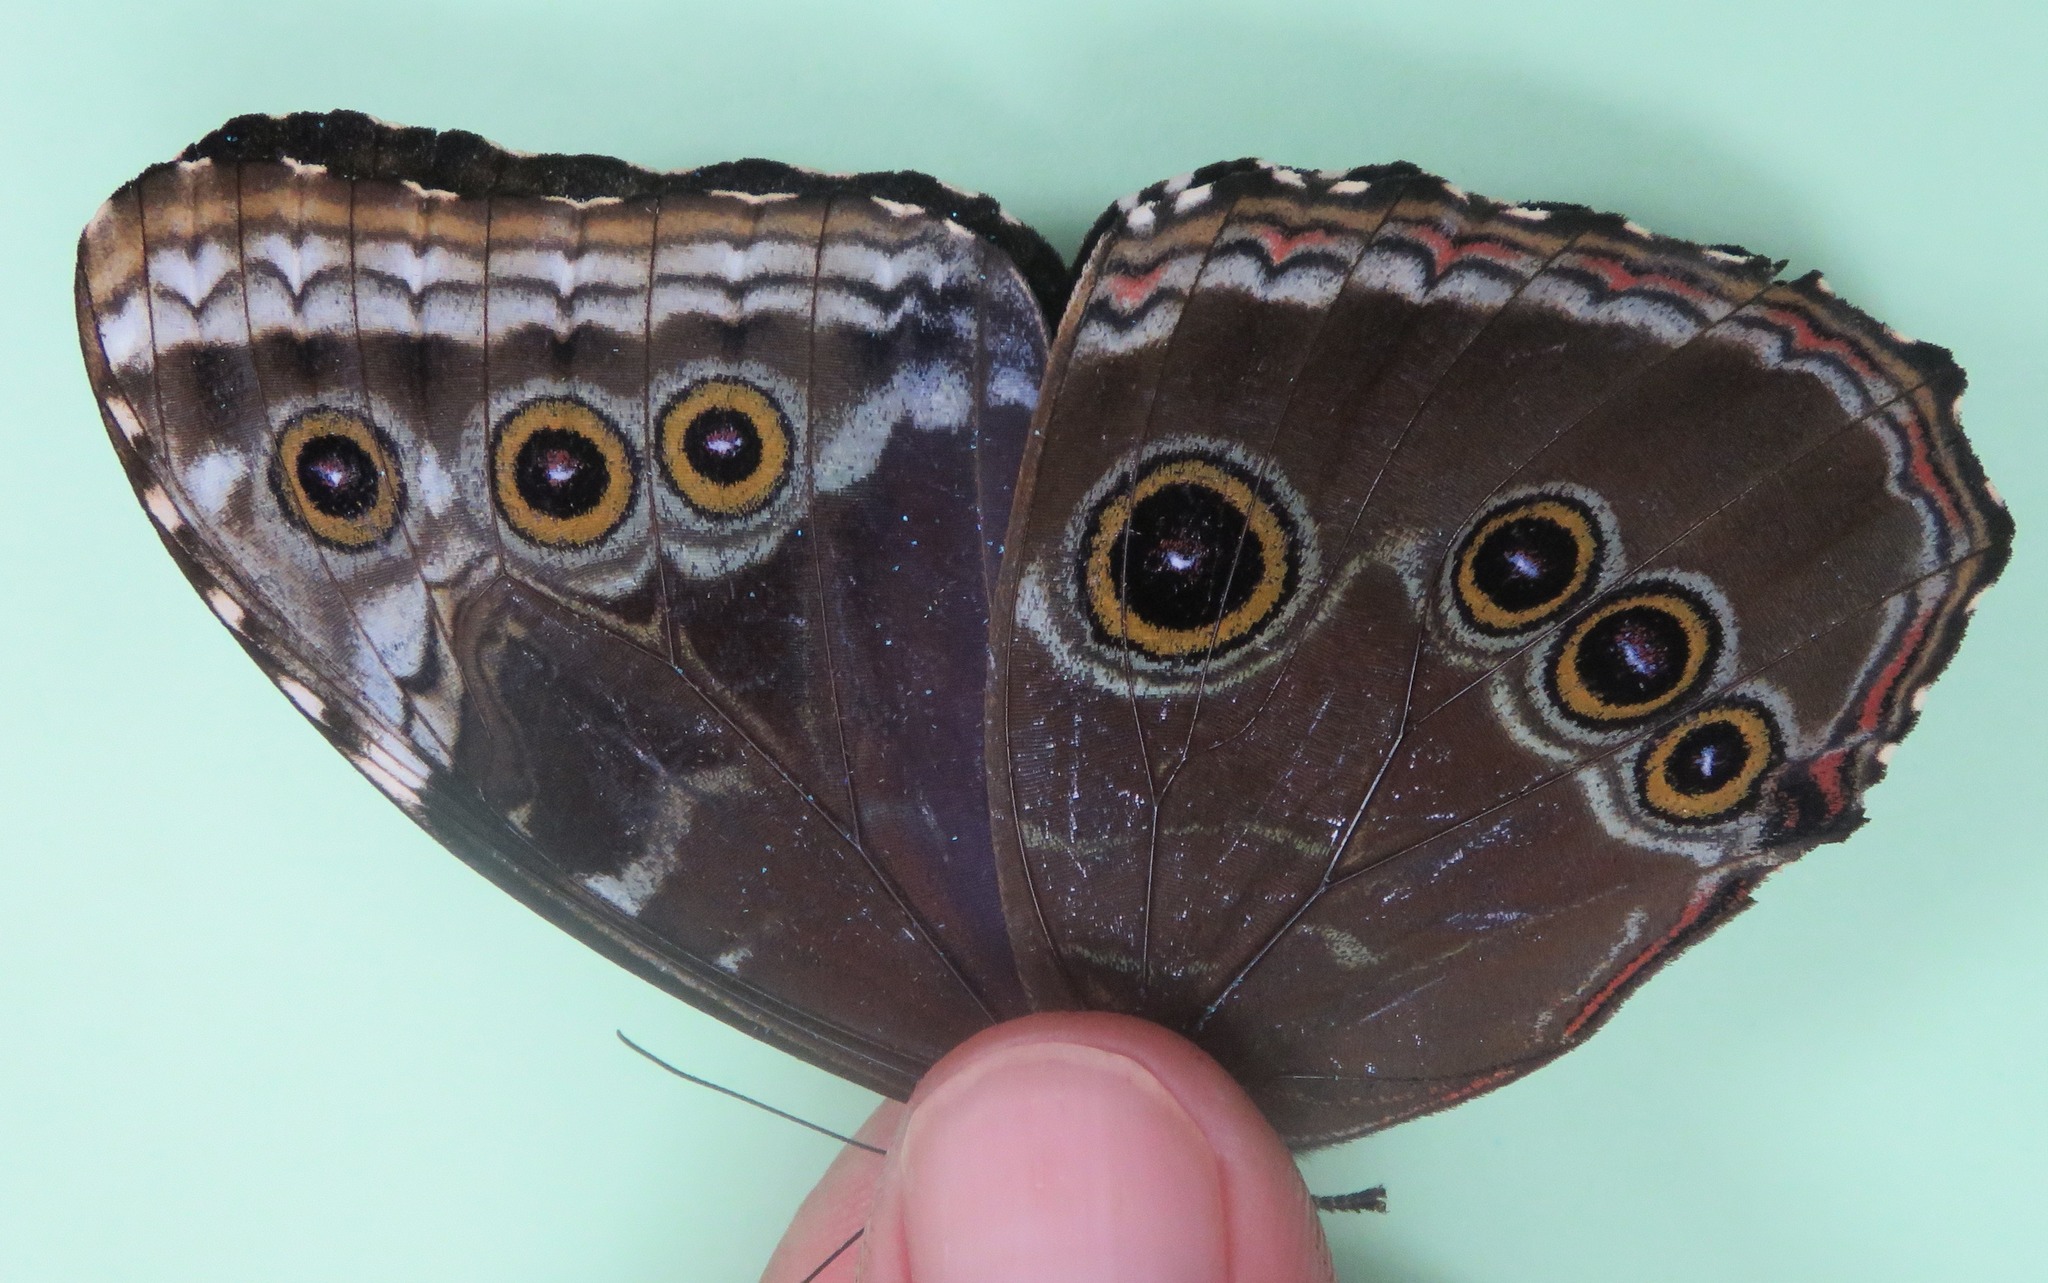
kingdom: Animalia
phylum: Arthropoda
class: Insecta
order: Lepidoptera
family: Nymphalidae
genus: Morpho
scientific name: Morpho helenor
